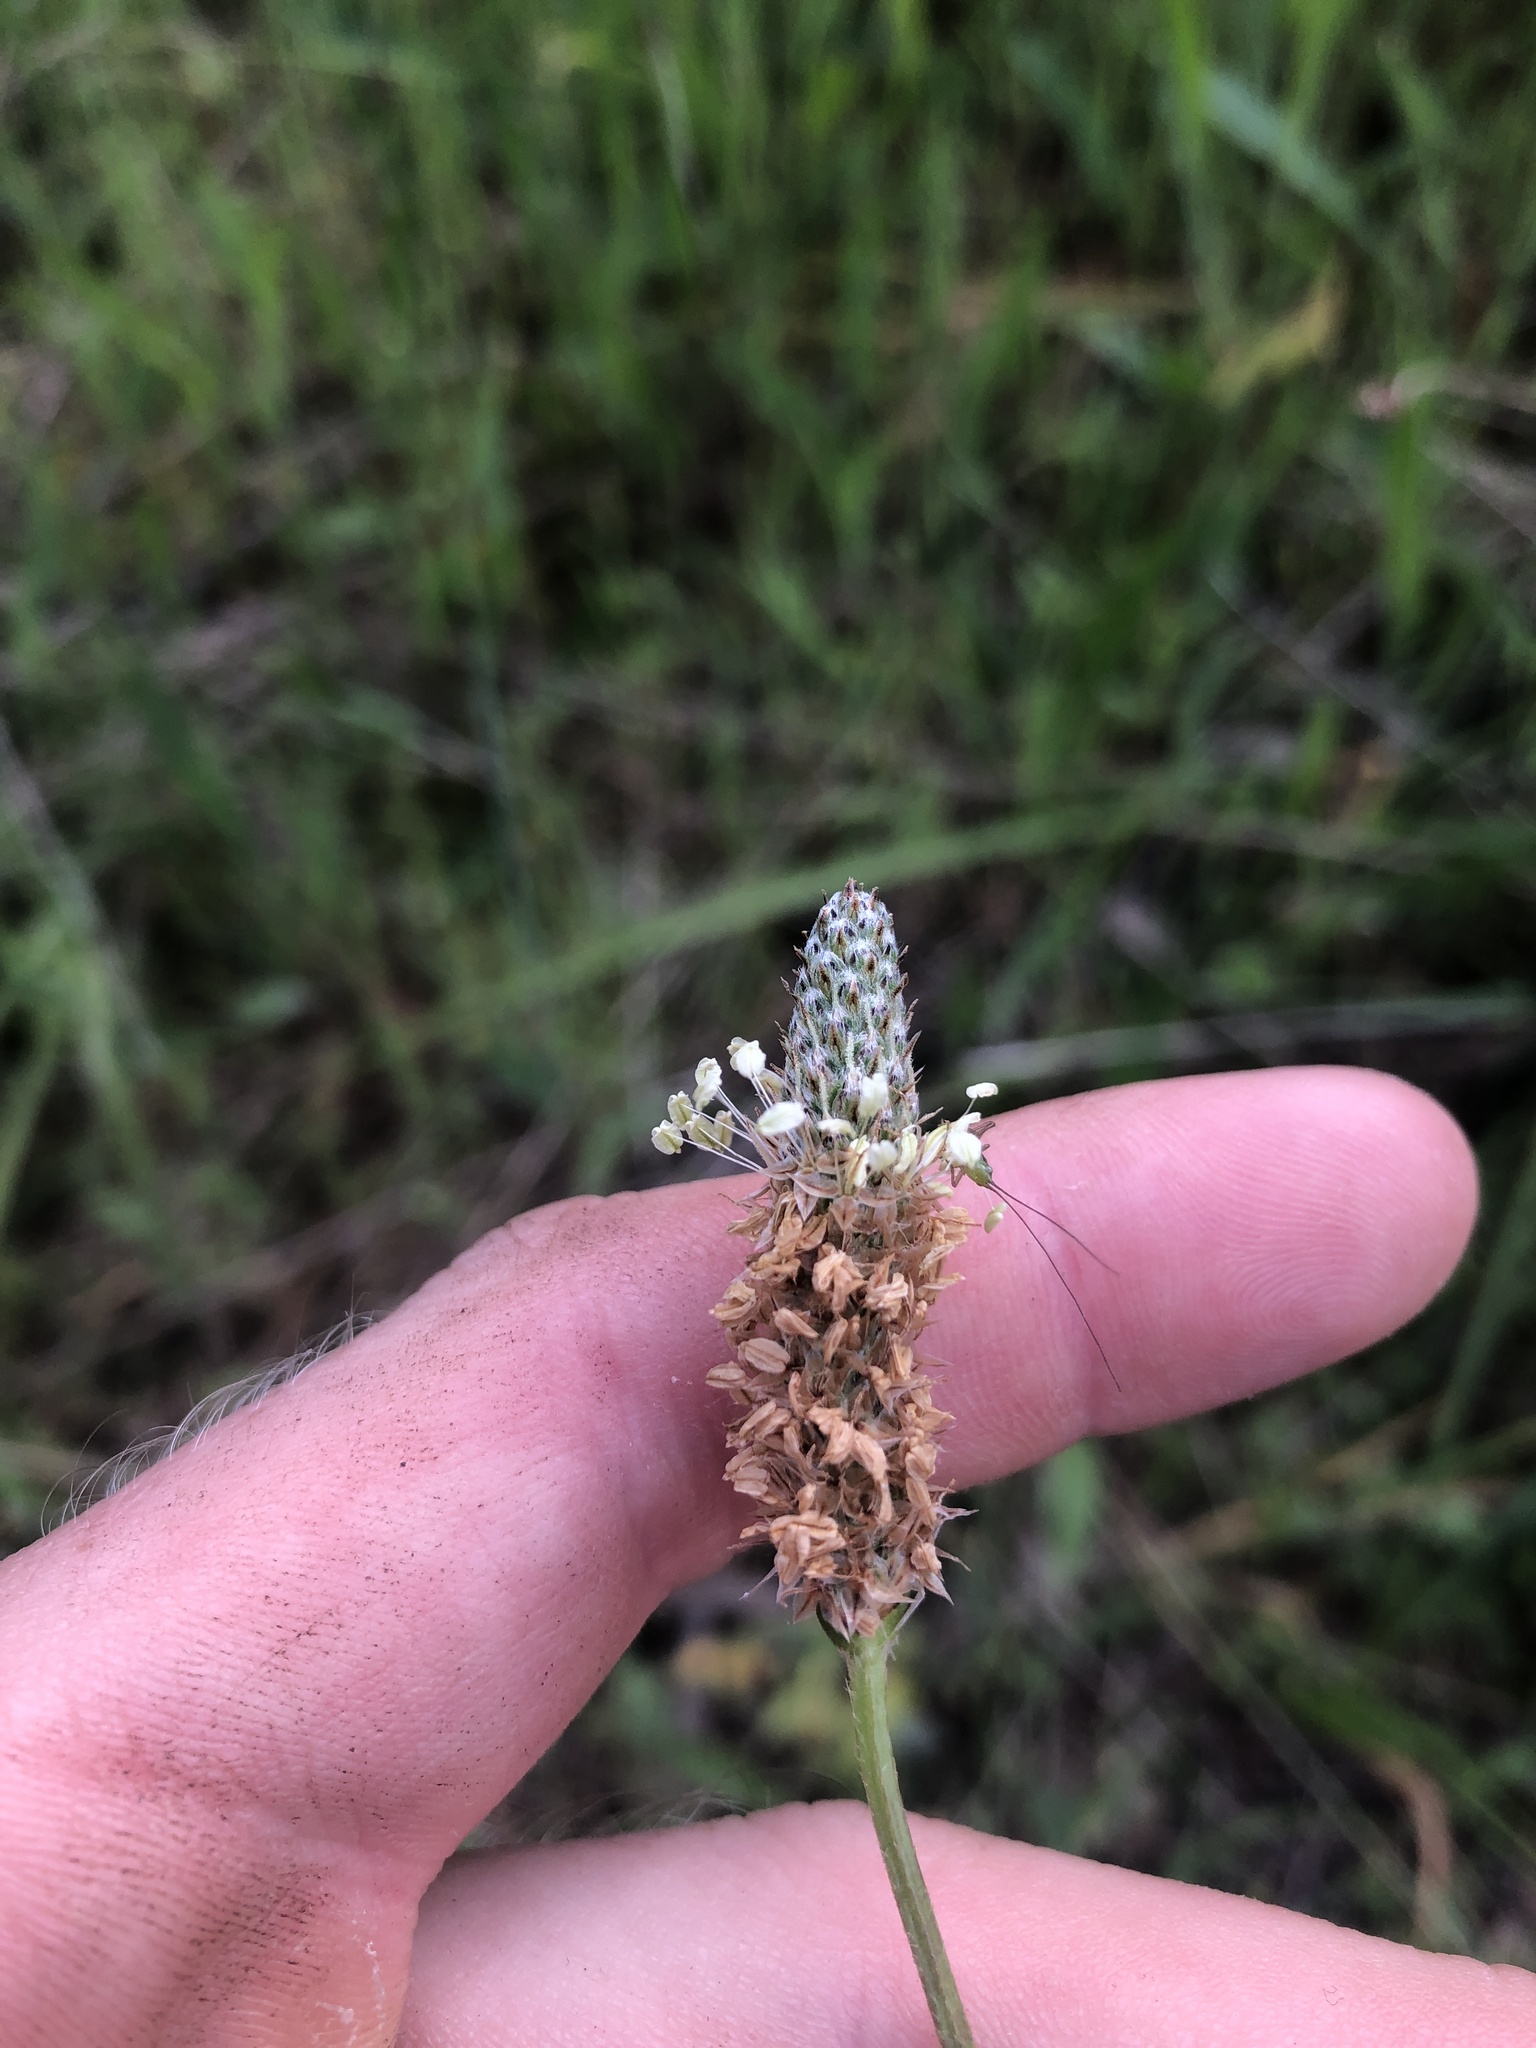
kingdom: Plantae
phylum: Tracheophyta
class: Magnoliopsida
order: Lamiales
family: Plantaginaceae
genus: Plantago
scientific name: Plantago lanceolata
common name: Ribwort plantain
